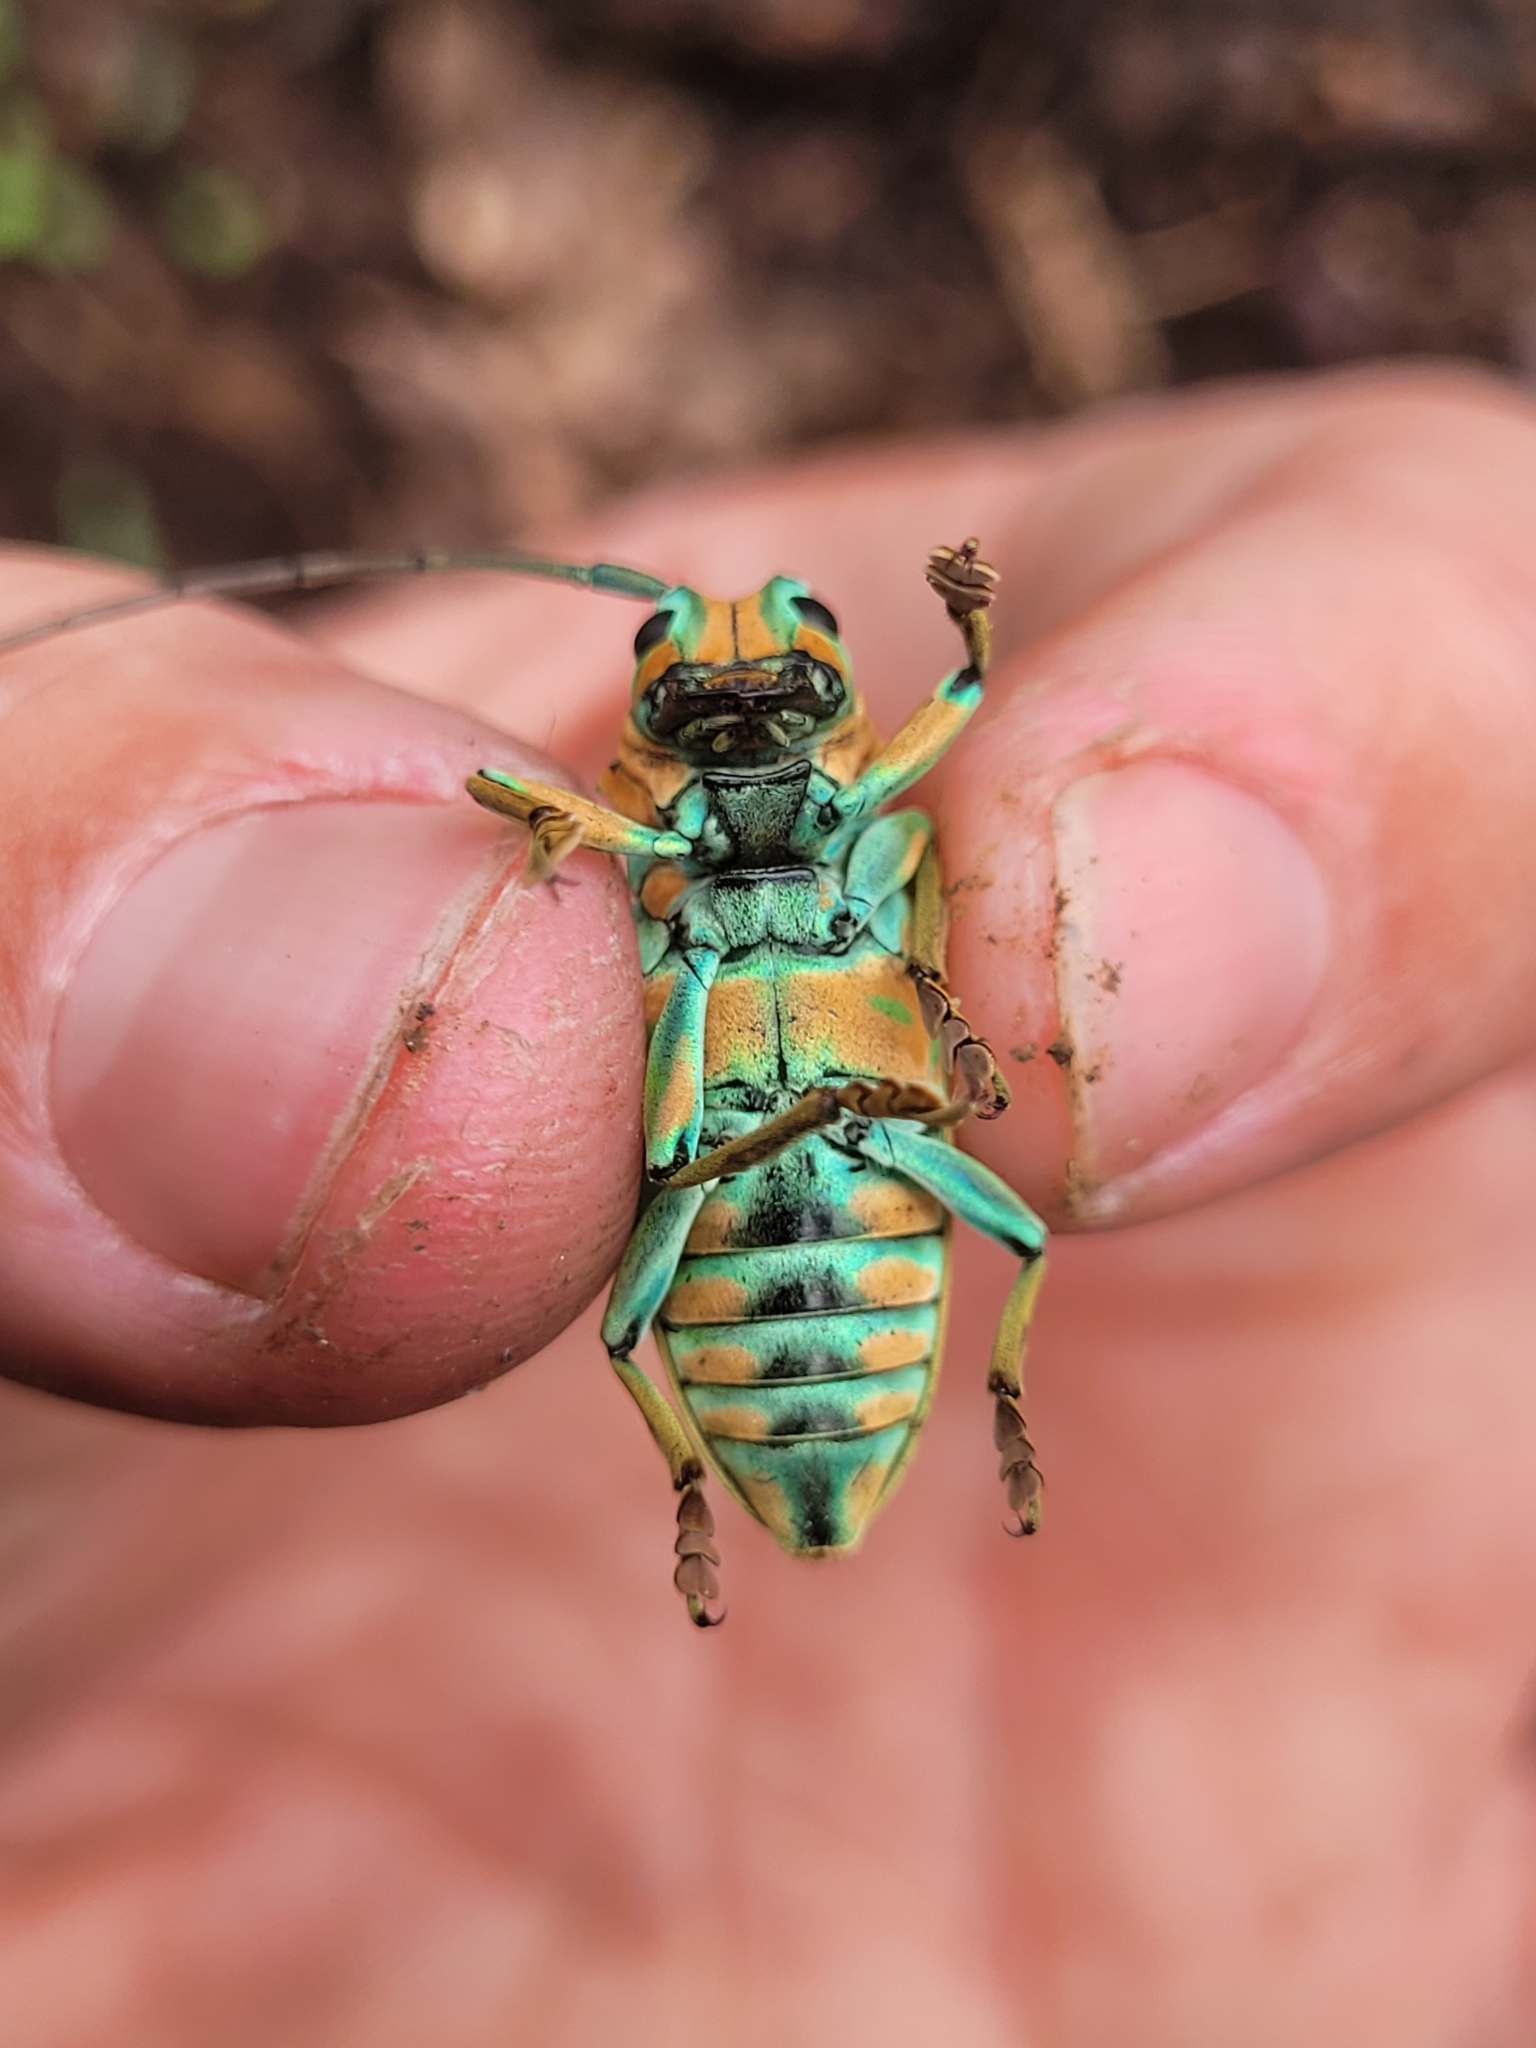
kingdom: Animalia
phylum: Arthropoda
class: Insecta
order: Coleoptera
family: Cerambycidae
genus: Sternotomis
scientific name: Sternotomis pulchra
